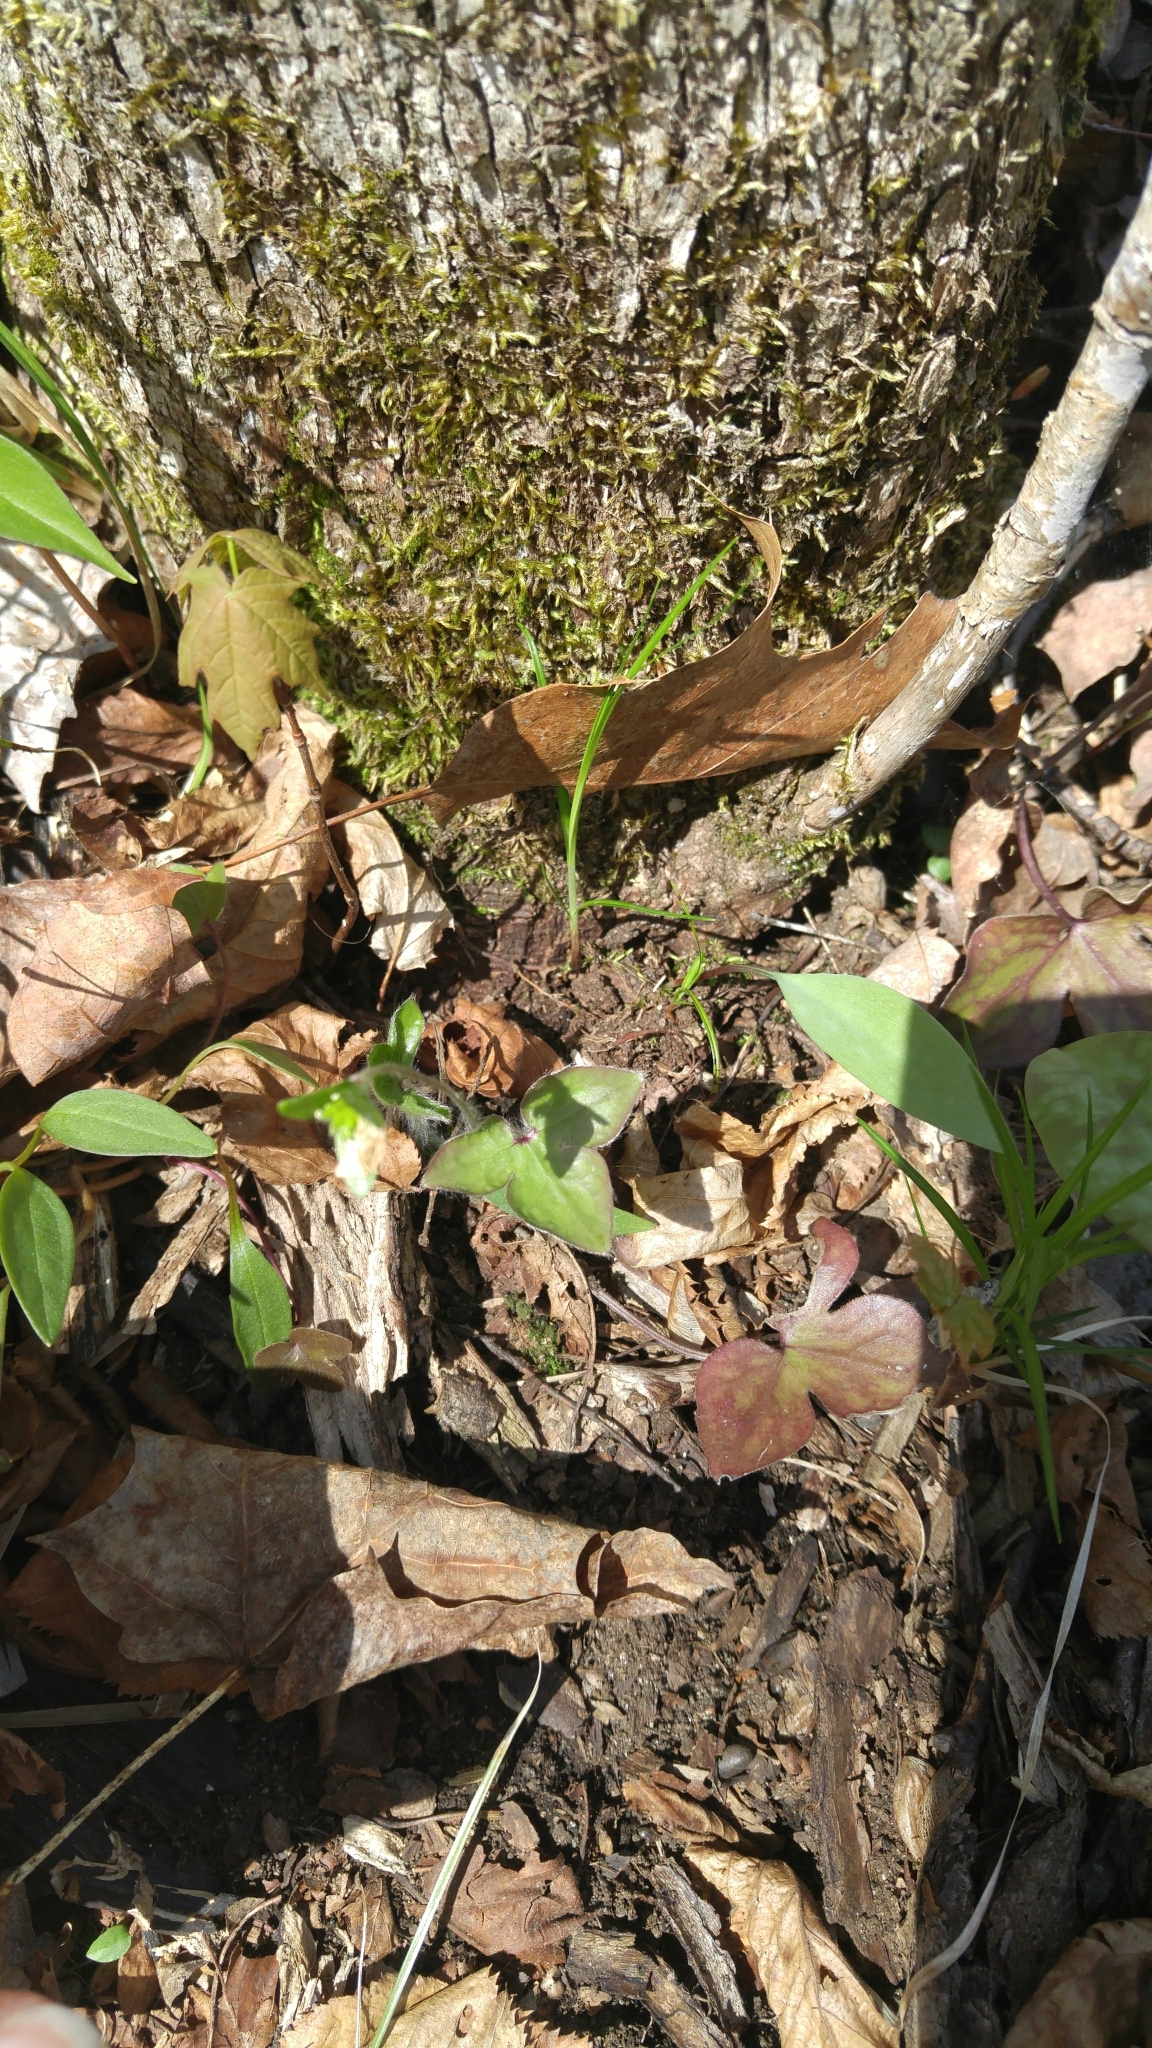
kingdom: Plantae
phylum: Tracheophyta
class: Magnoliopsida
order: Ranunculales
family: Ranunculaceae
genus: Hepatica
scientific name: Hepatica acutiloba
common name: Sharp-lobed hepatica
